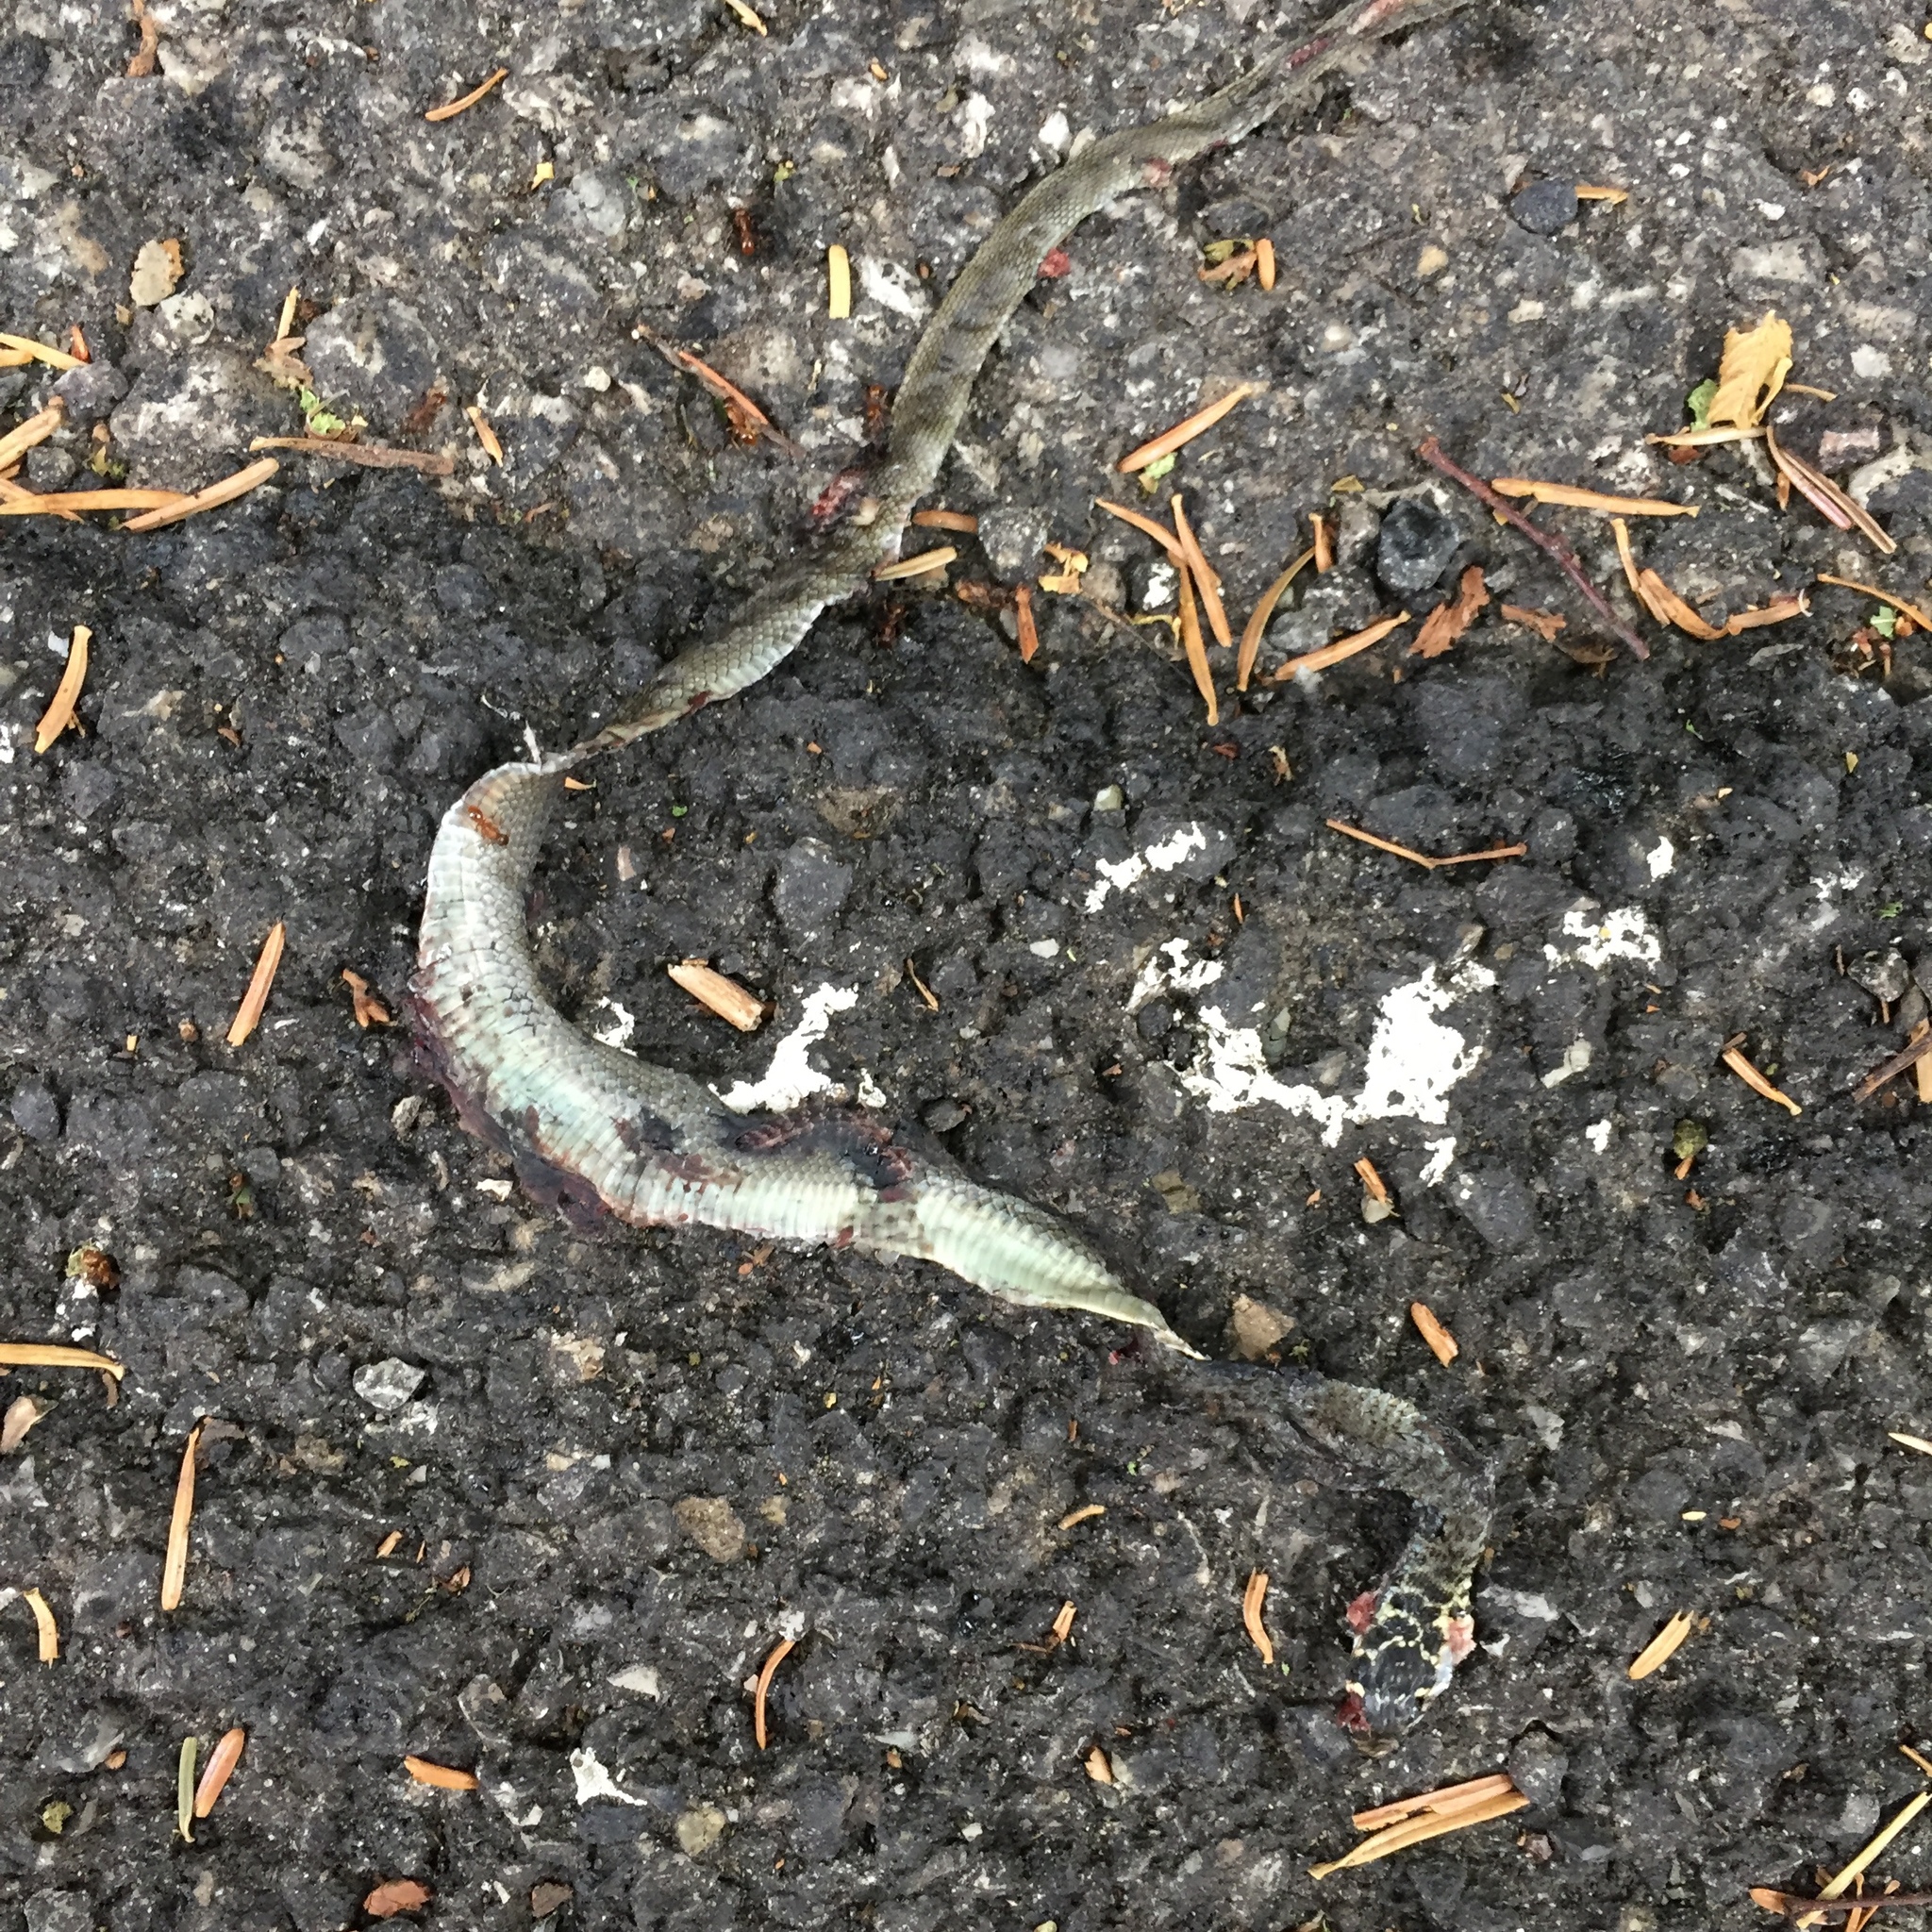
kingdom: Animalia
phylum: Chordata
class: Squamata
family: Colubridae
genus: Hierophis
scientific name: Hierophis viridiflavus
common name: Green whip snake
